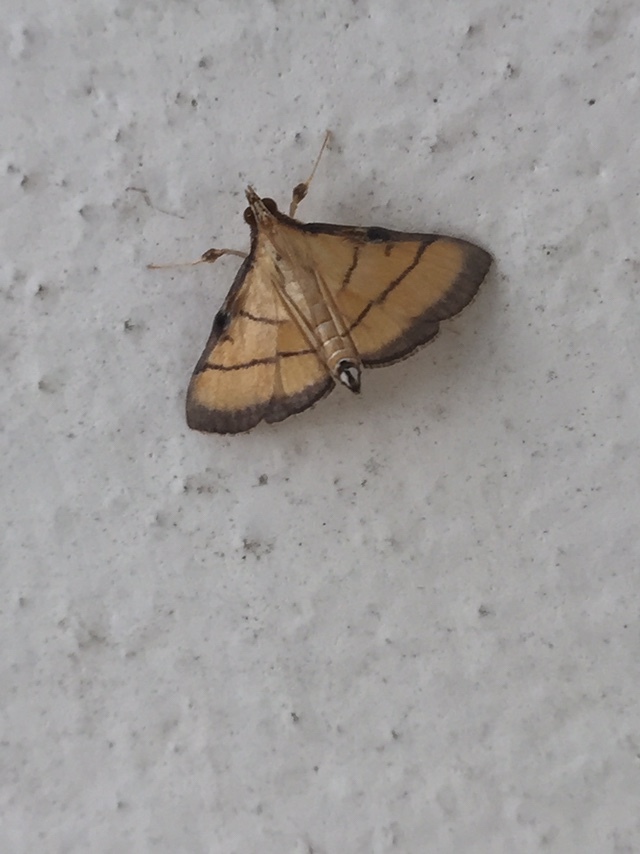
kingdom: Animalia
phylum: Arthropoda
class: Insecta
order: Lepidoptera
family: Crambidae
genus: Cnaphalocrocis
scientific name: Cnaphalocrocis medinalis
